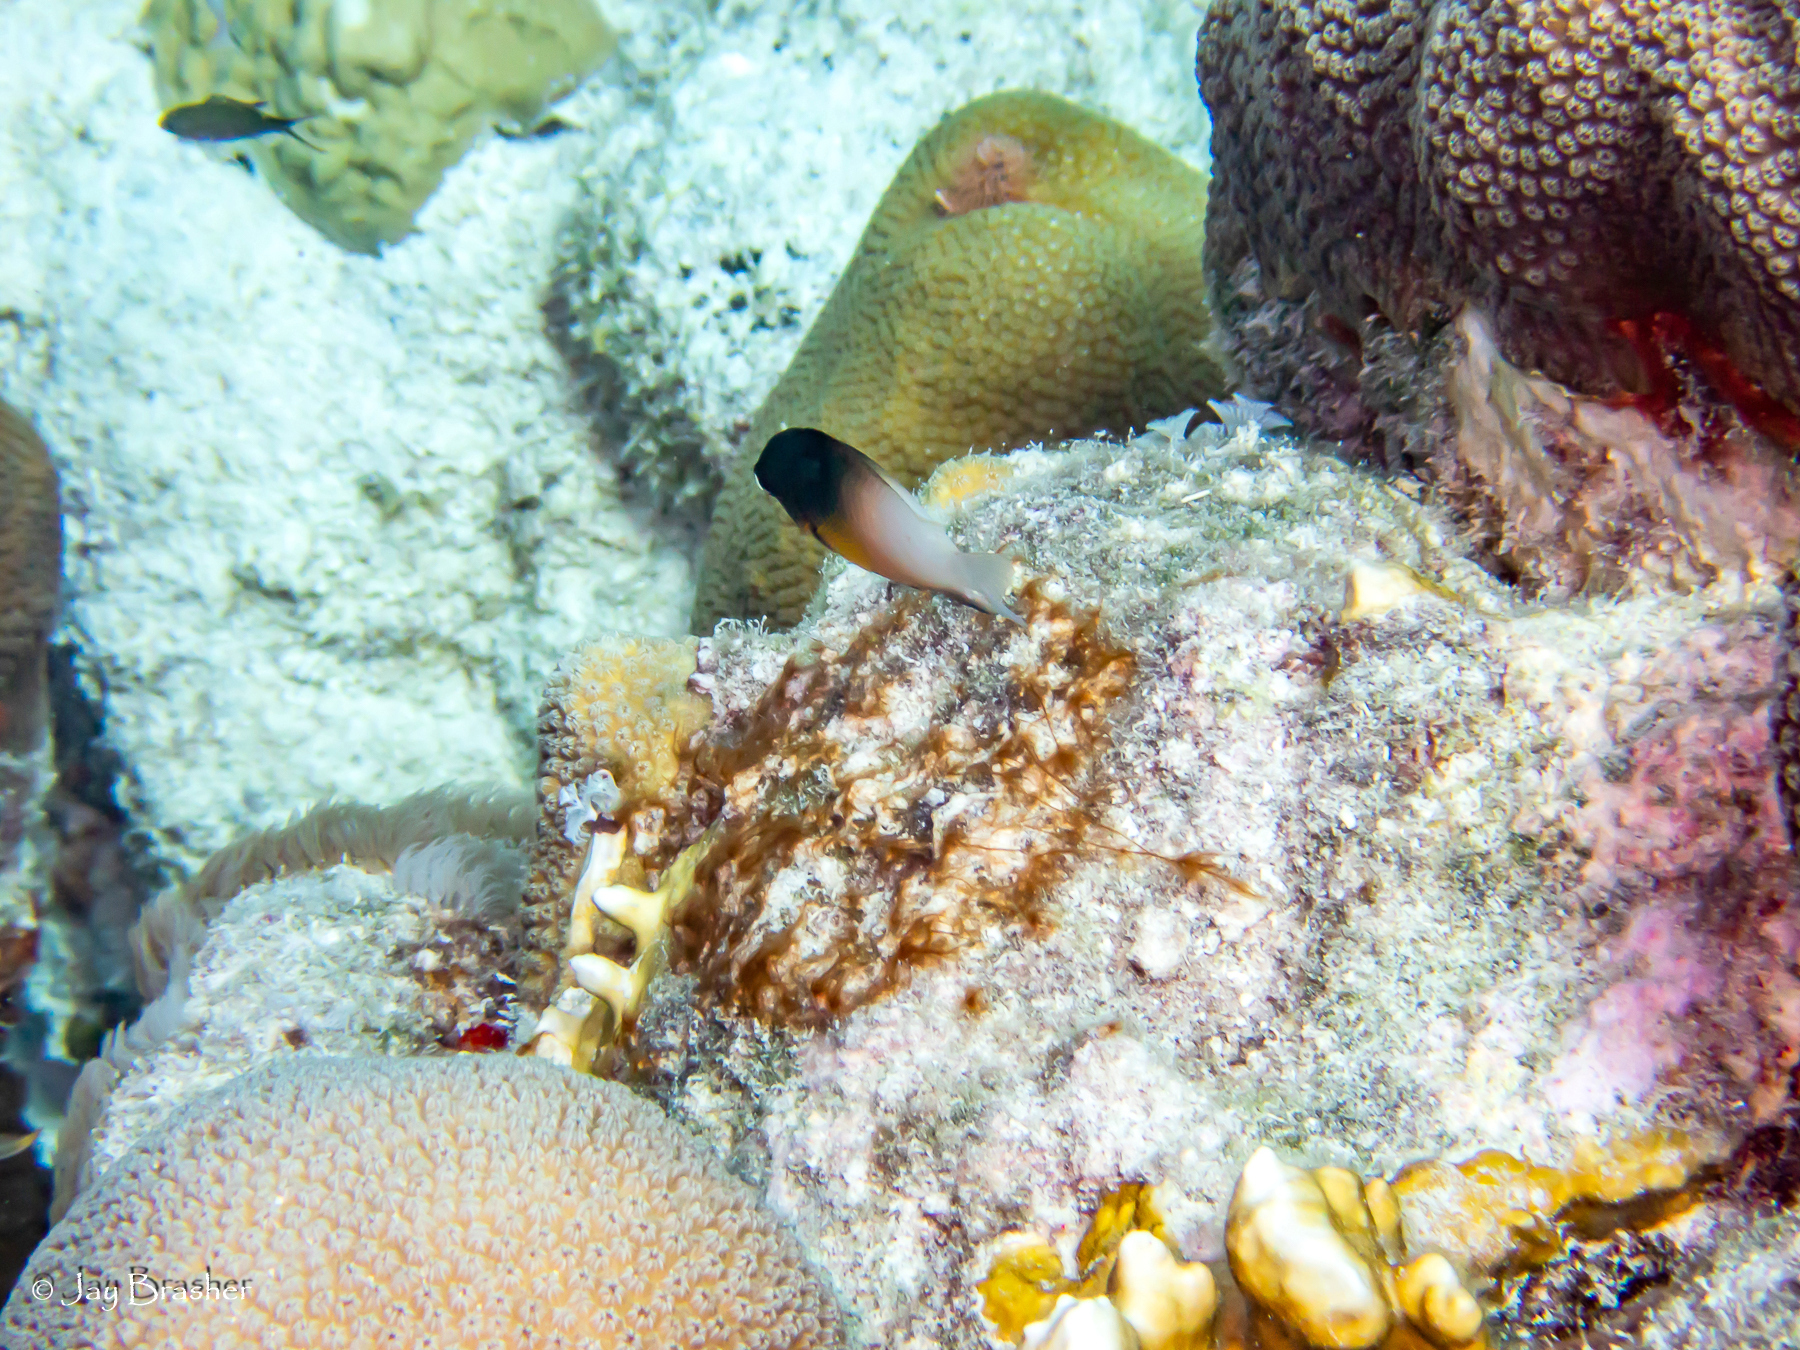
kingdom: Animalia
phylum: Chordata
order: Perciformes
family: Pomacentridae
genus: Stegastes
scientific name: Stegastes partitus
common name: Bicolor damselfish
